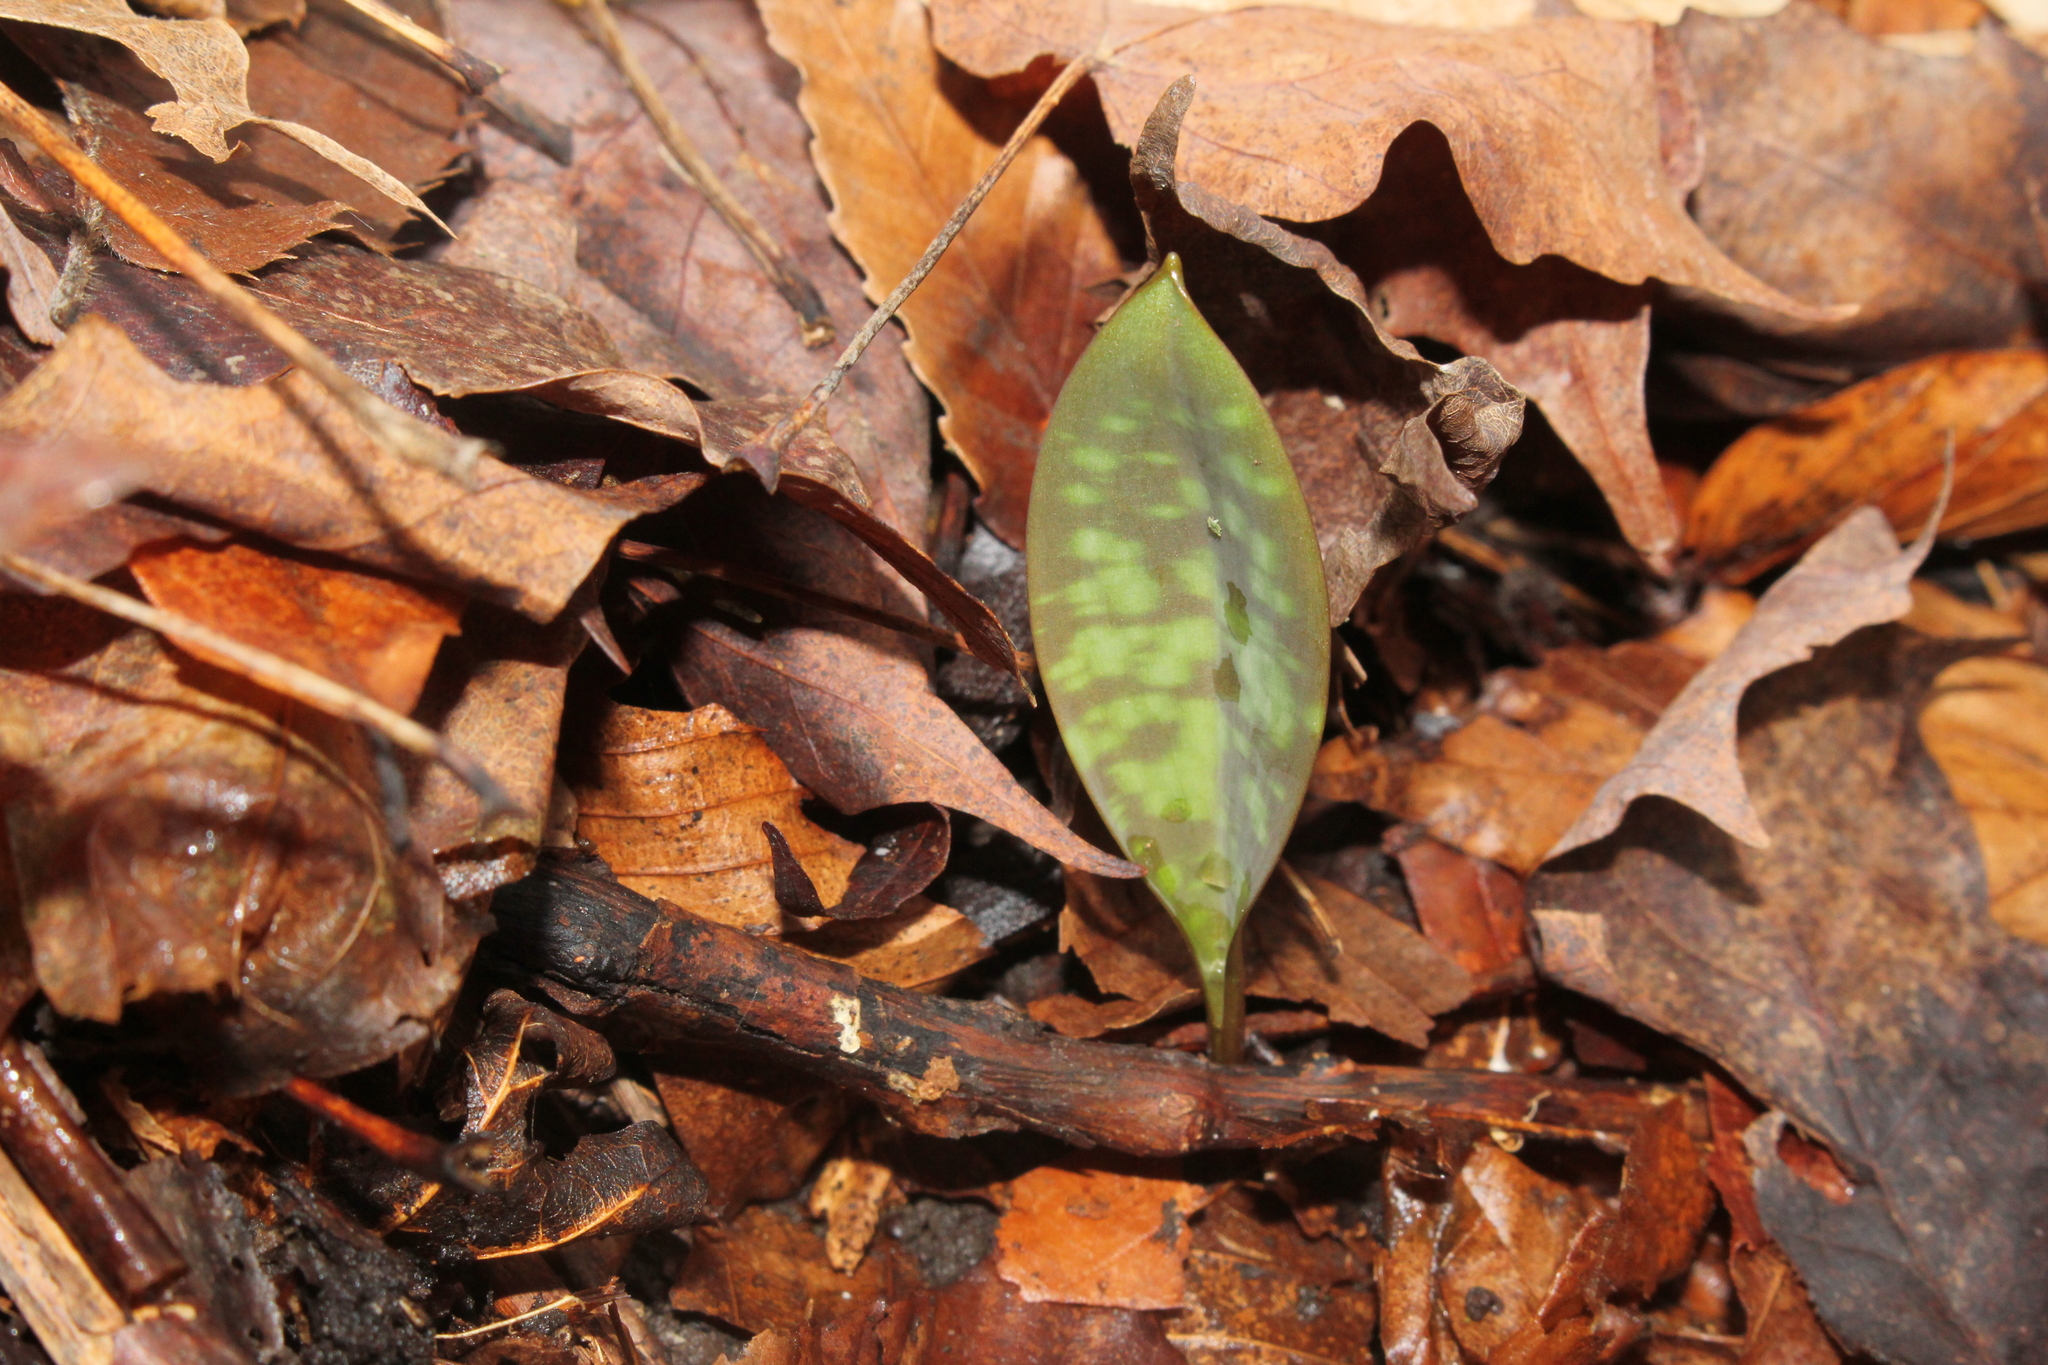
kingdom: Plantae
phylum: Tracheophyta
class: Liliopsida
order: Liliales
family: Liliaceae
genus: Erythronium
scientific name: Erythronium
